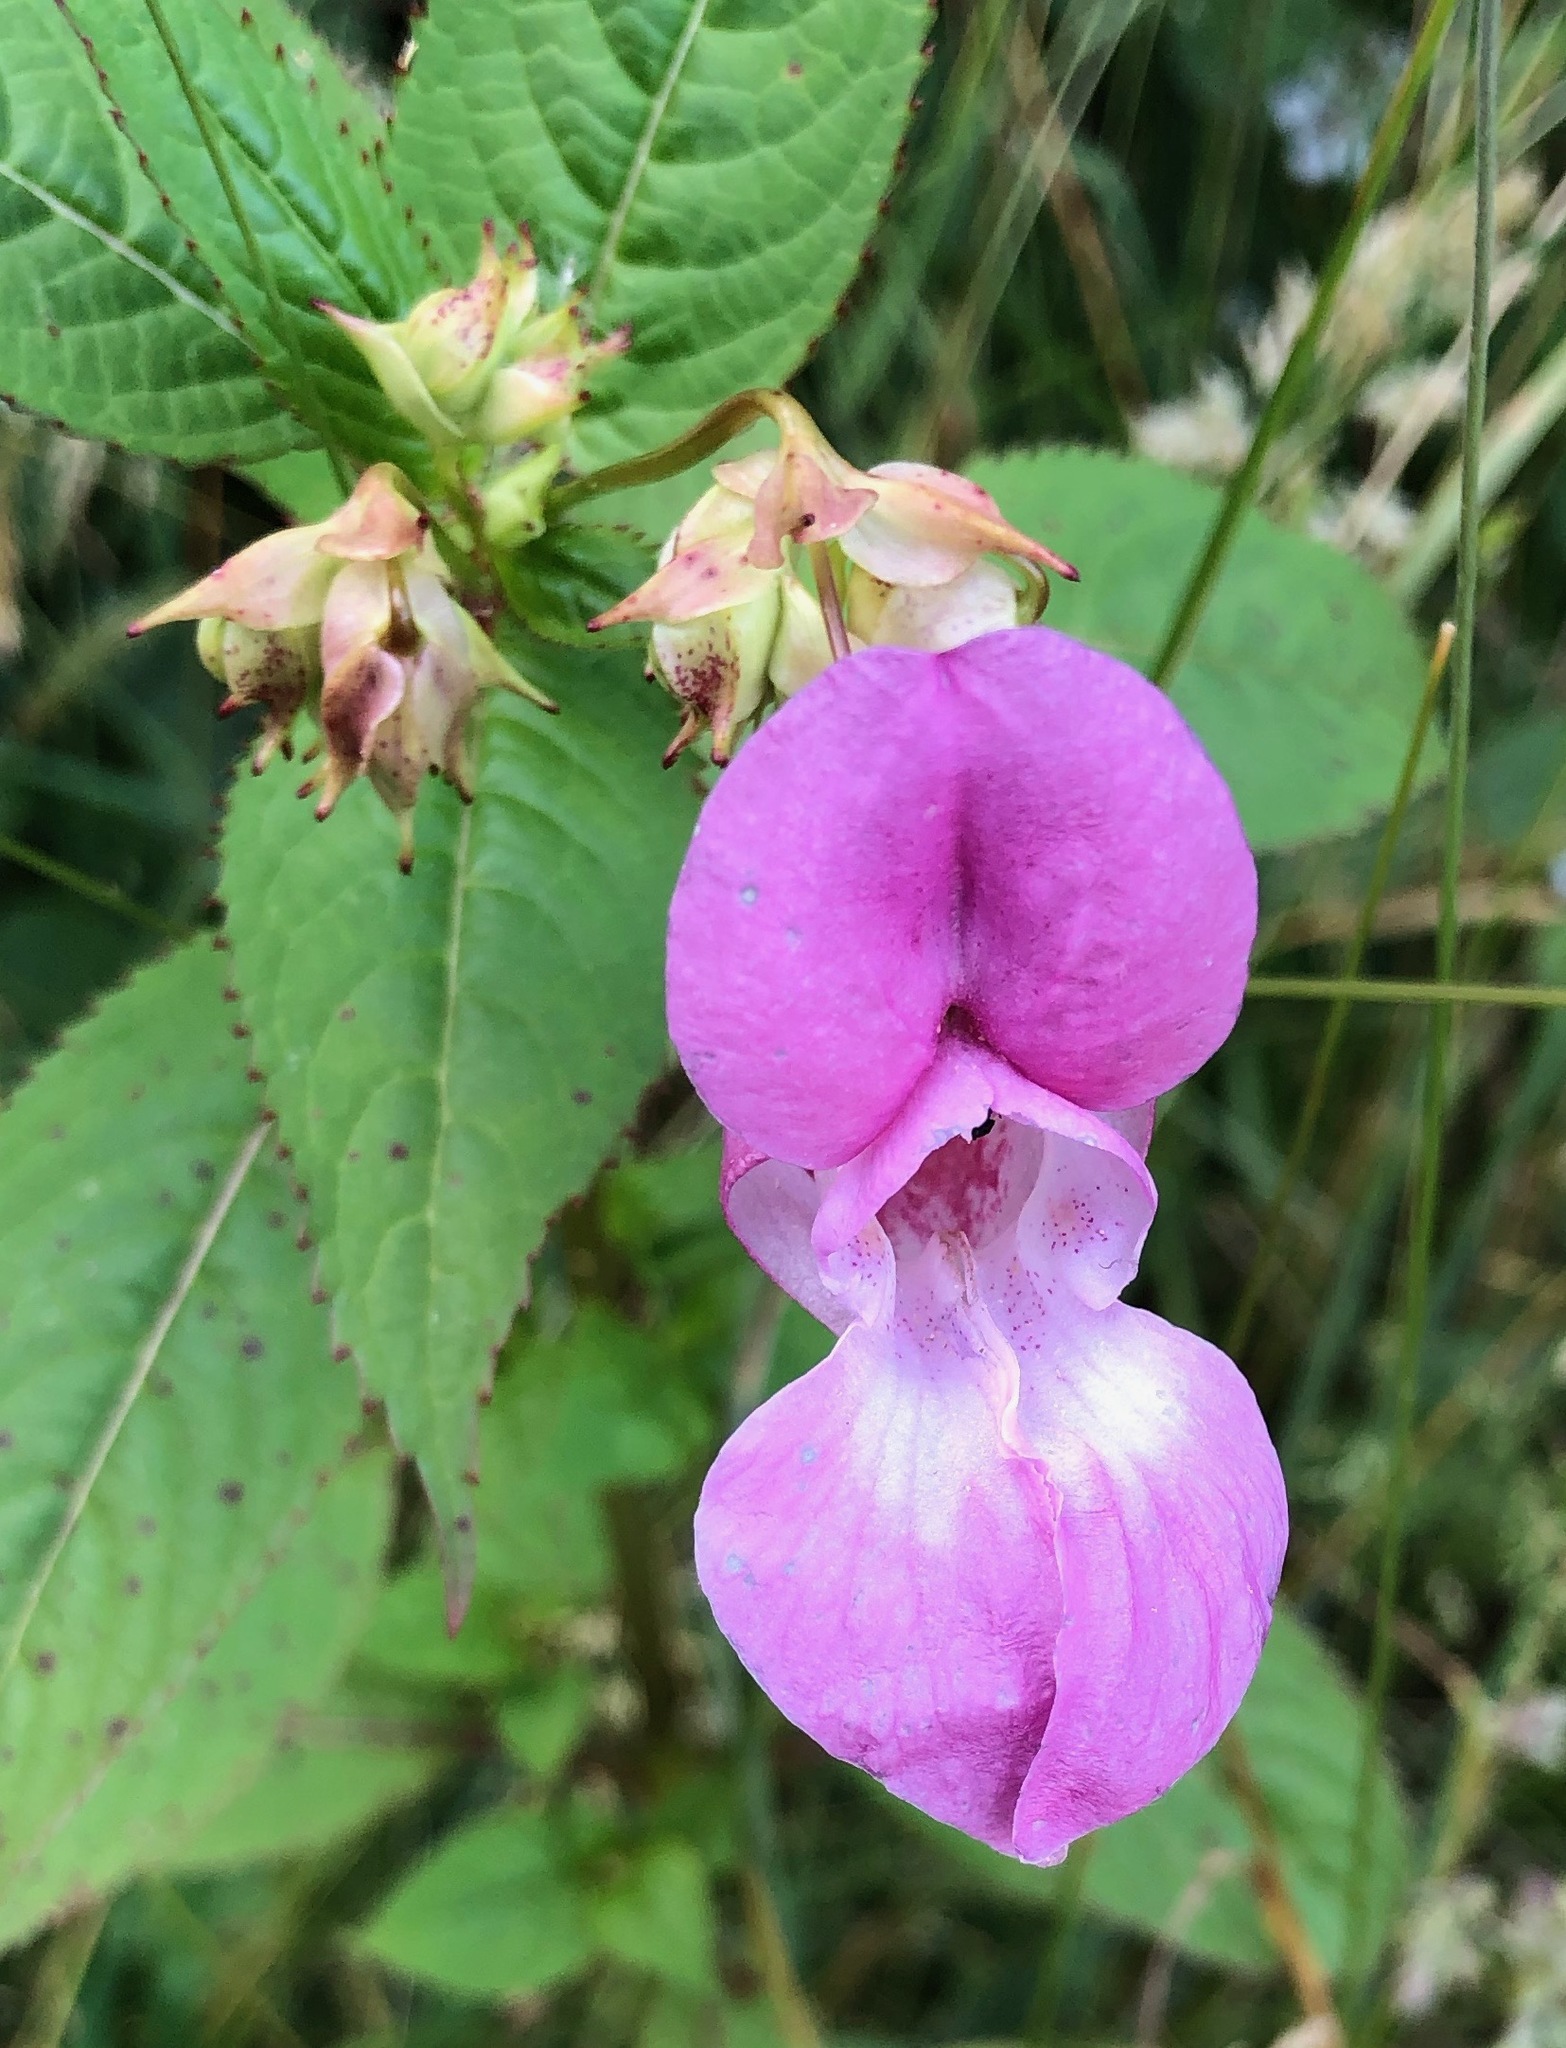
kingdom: Plantae
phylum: Tracheophyta
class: Magnoliopsida
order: Ericales
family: Balsaminaceae
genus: Impatiens
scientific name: Impatiens glandulifera
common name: Himalayan balsam
